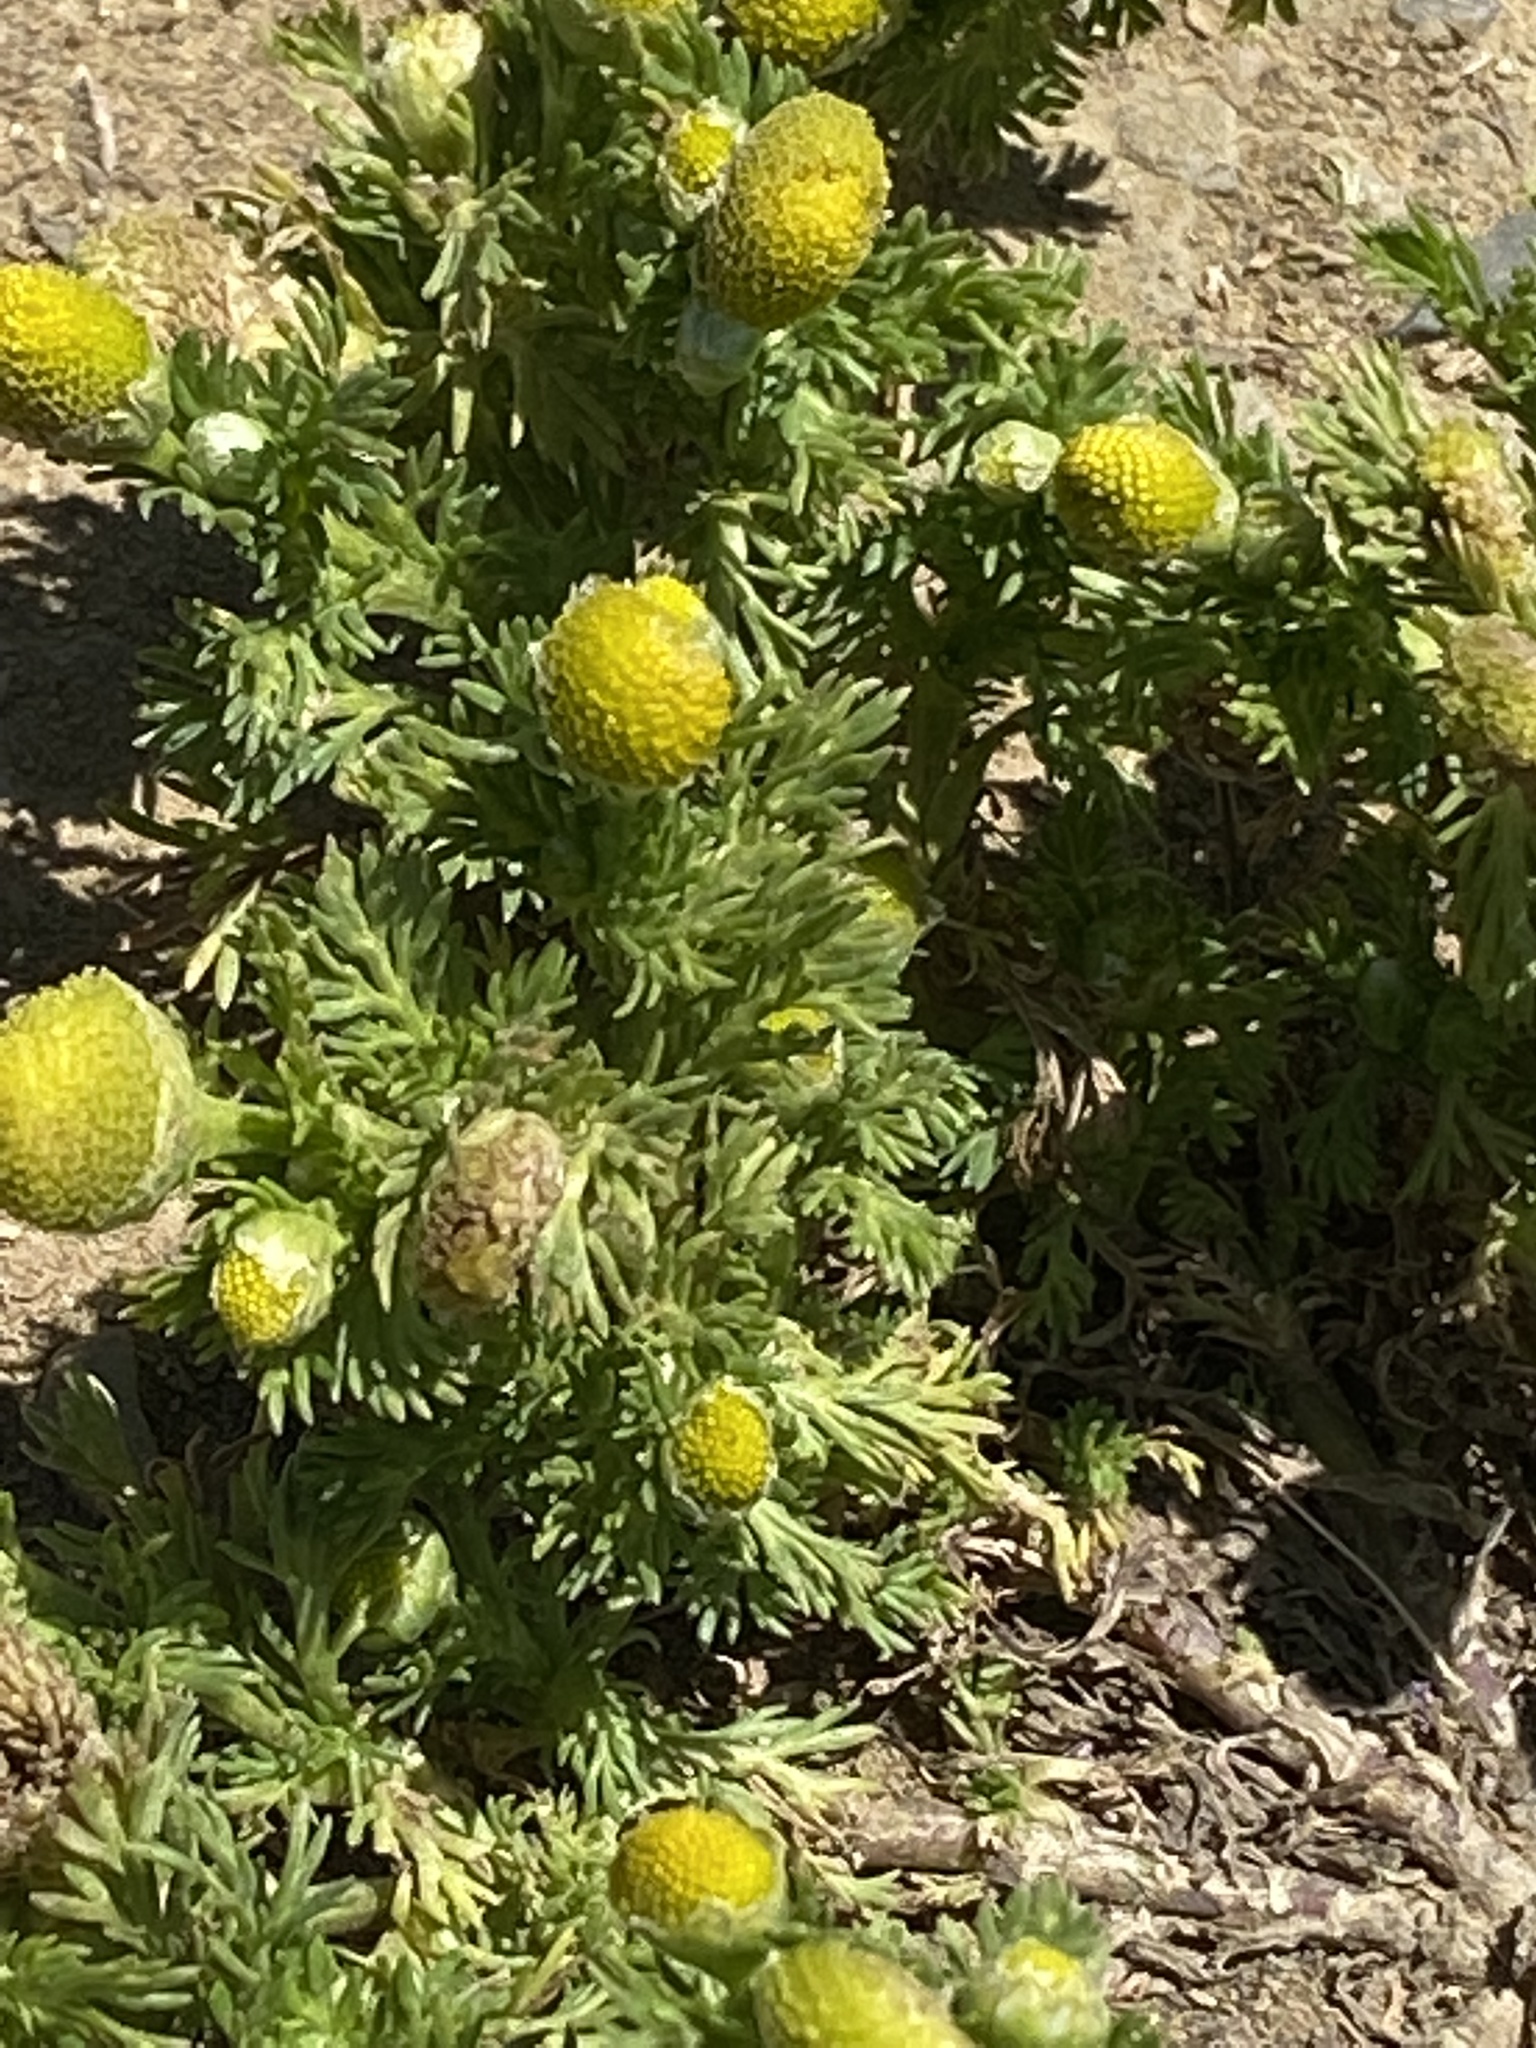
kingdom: Plantae
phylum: Tracheophyta
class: Magnoliopsida
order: Asterales
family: Asteraceae
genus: Matricaria
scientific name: Matricaria discoidea
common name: Disc mayweed
